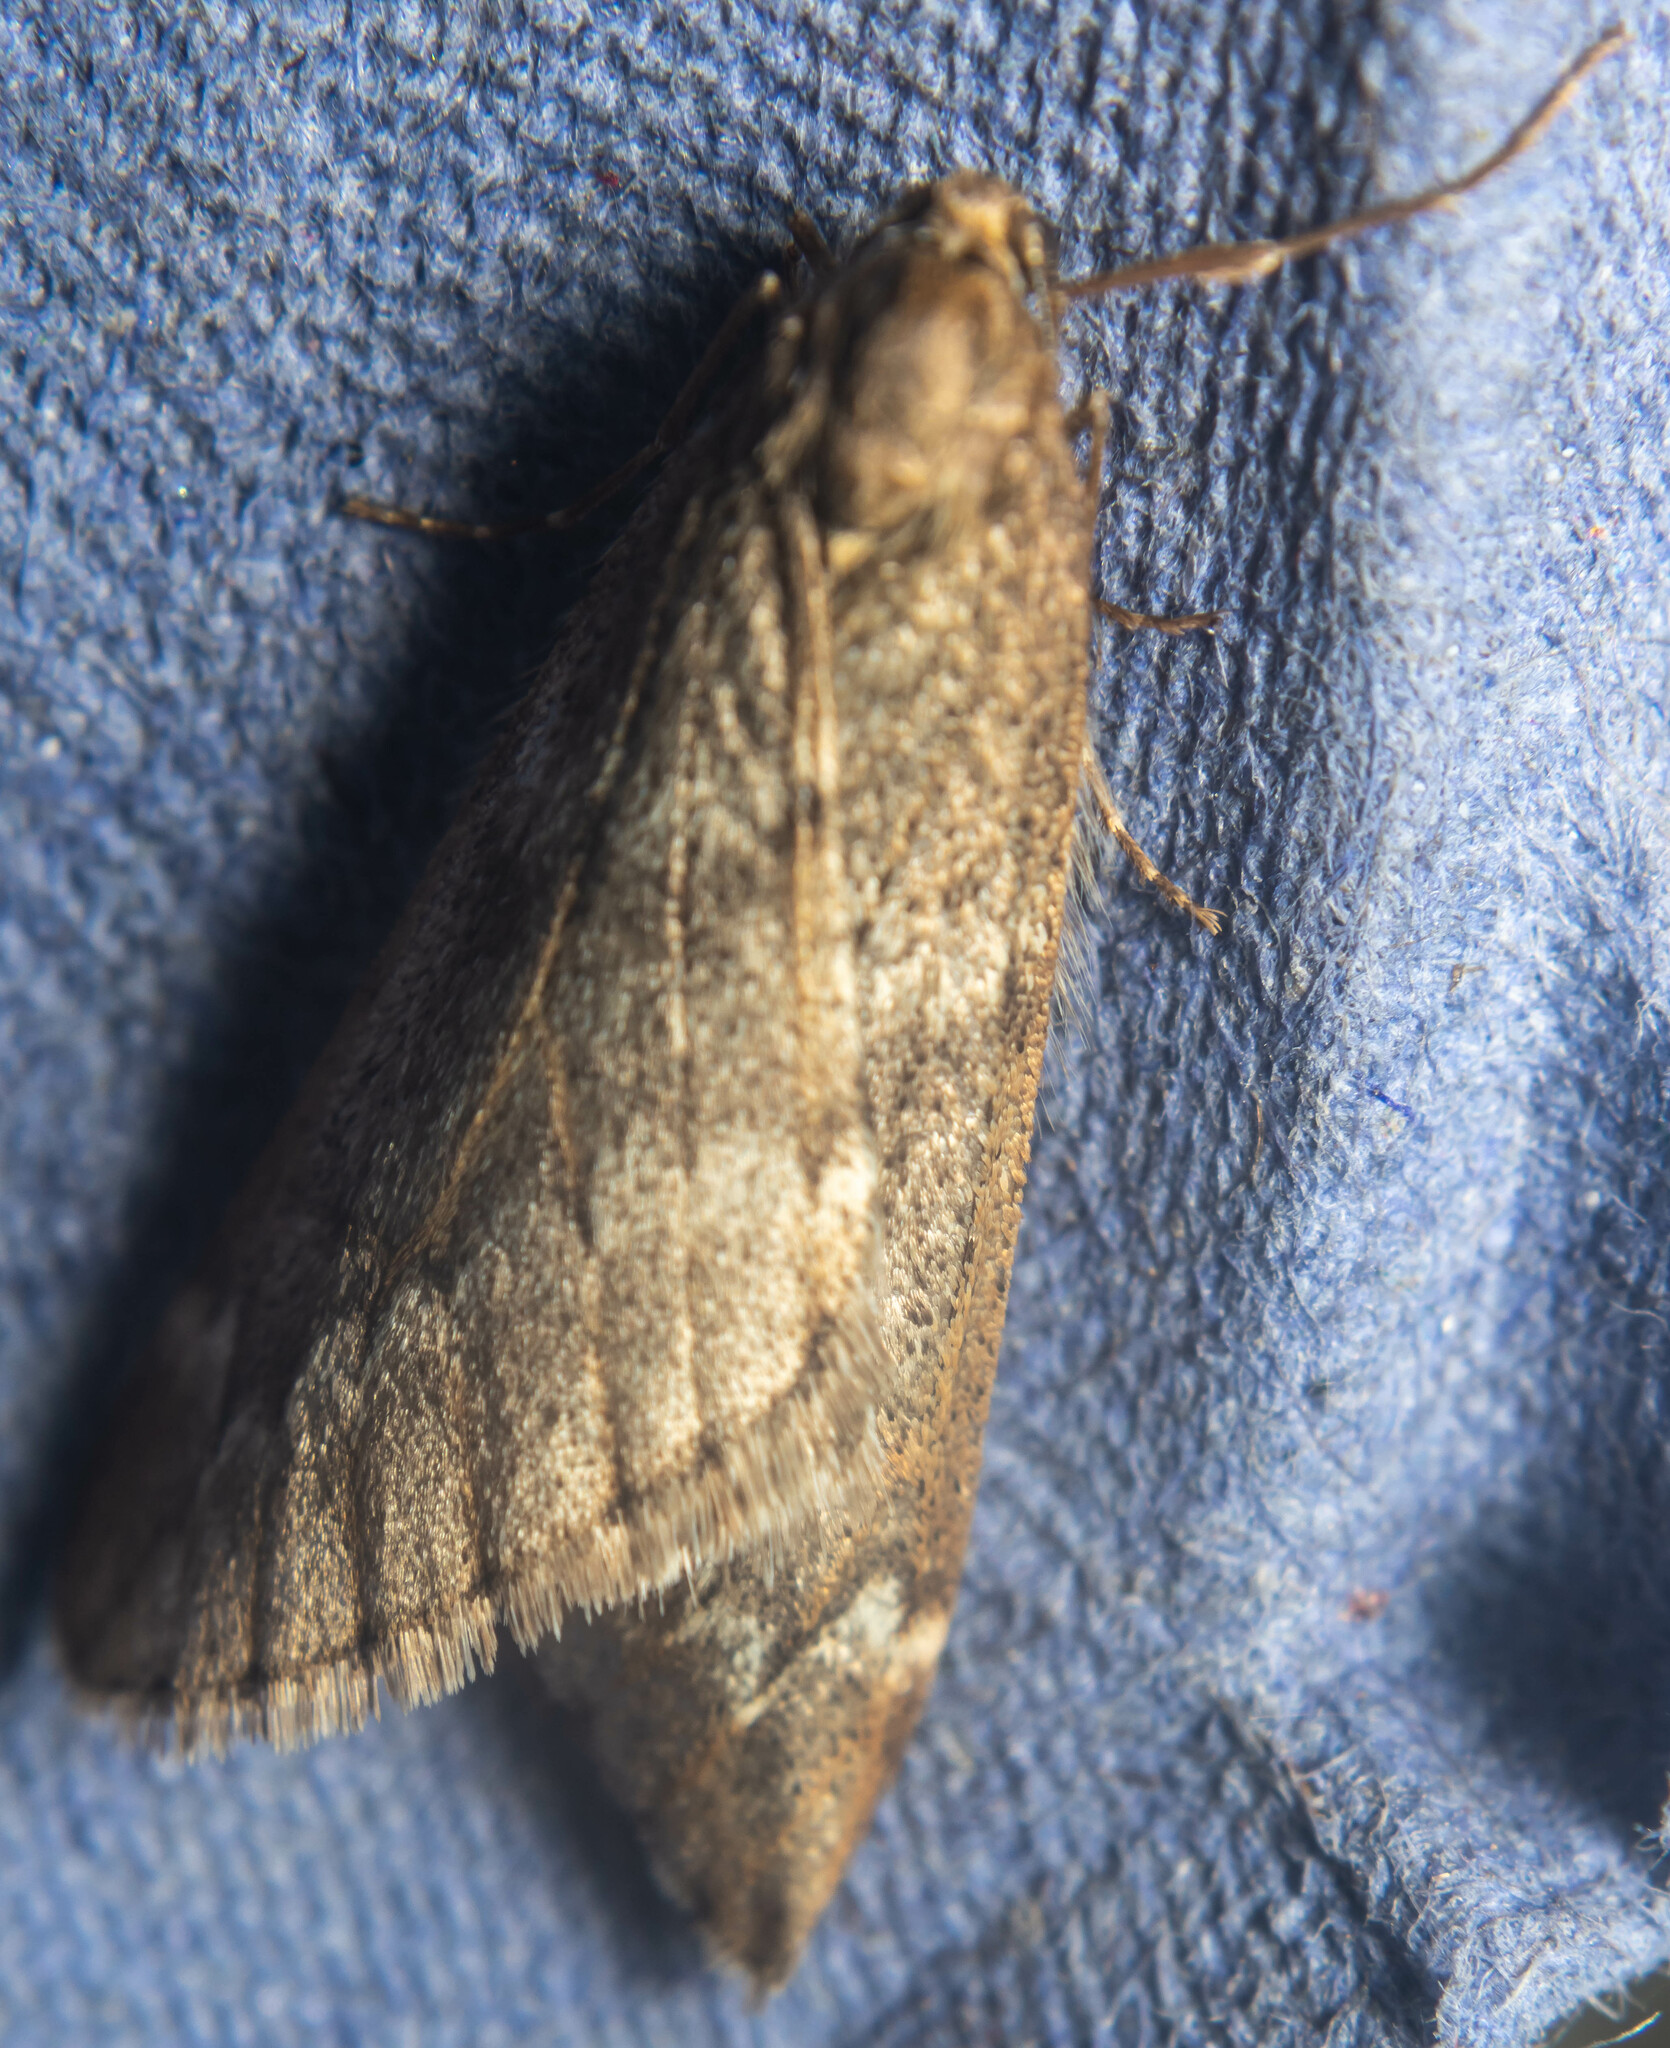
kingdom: Animalia
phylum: Arthropoda
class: Insecta
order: Lepidoptera
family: Geometridae
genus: Alsophila
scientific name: Alsophila aescularia
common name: March moth
